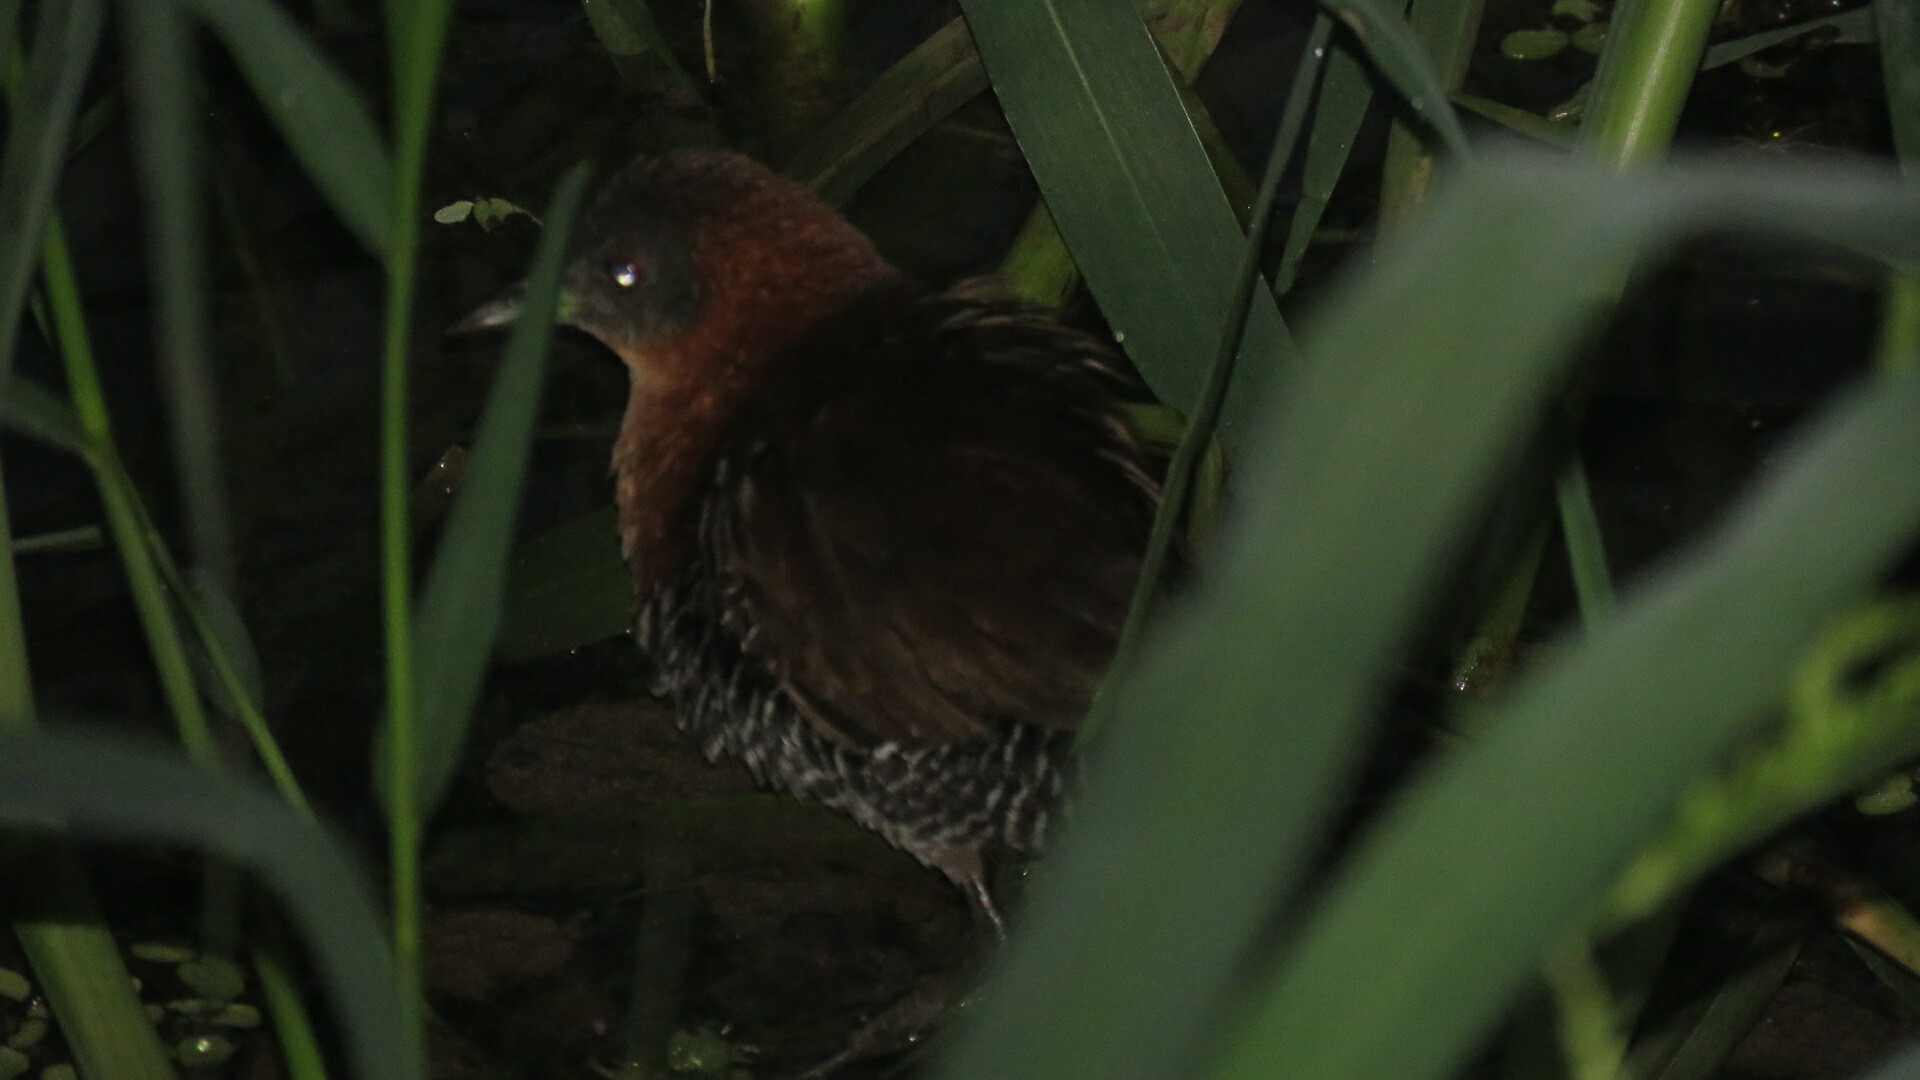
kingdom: Animalia
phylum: Chordata
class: Aves
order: Gruiformes
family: Rallidae
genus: Laterallus
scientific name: Laterallus albigularis
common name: White-throated crake
